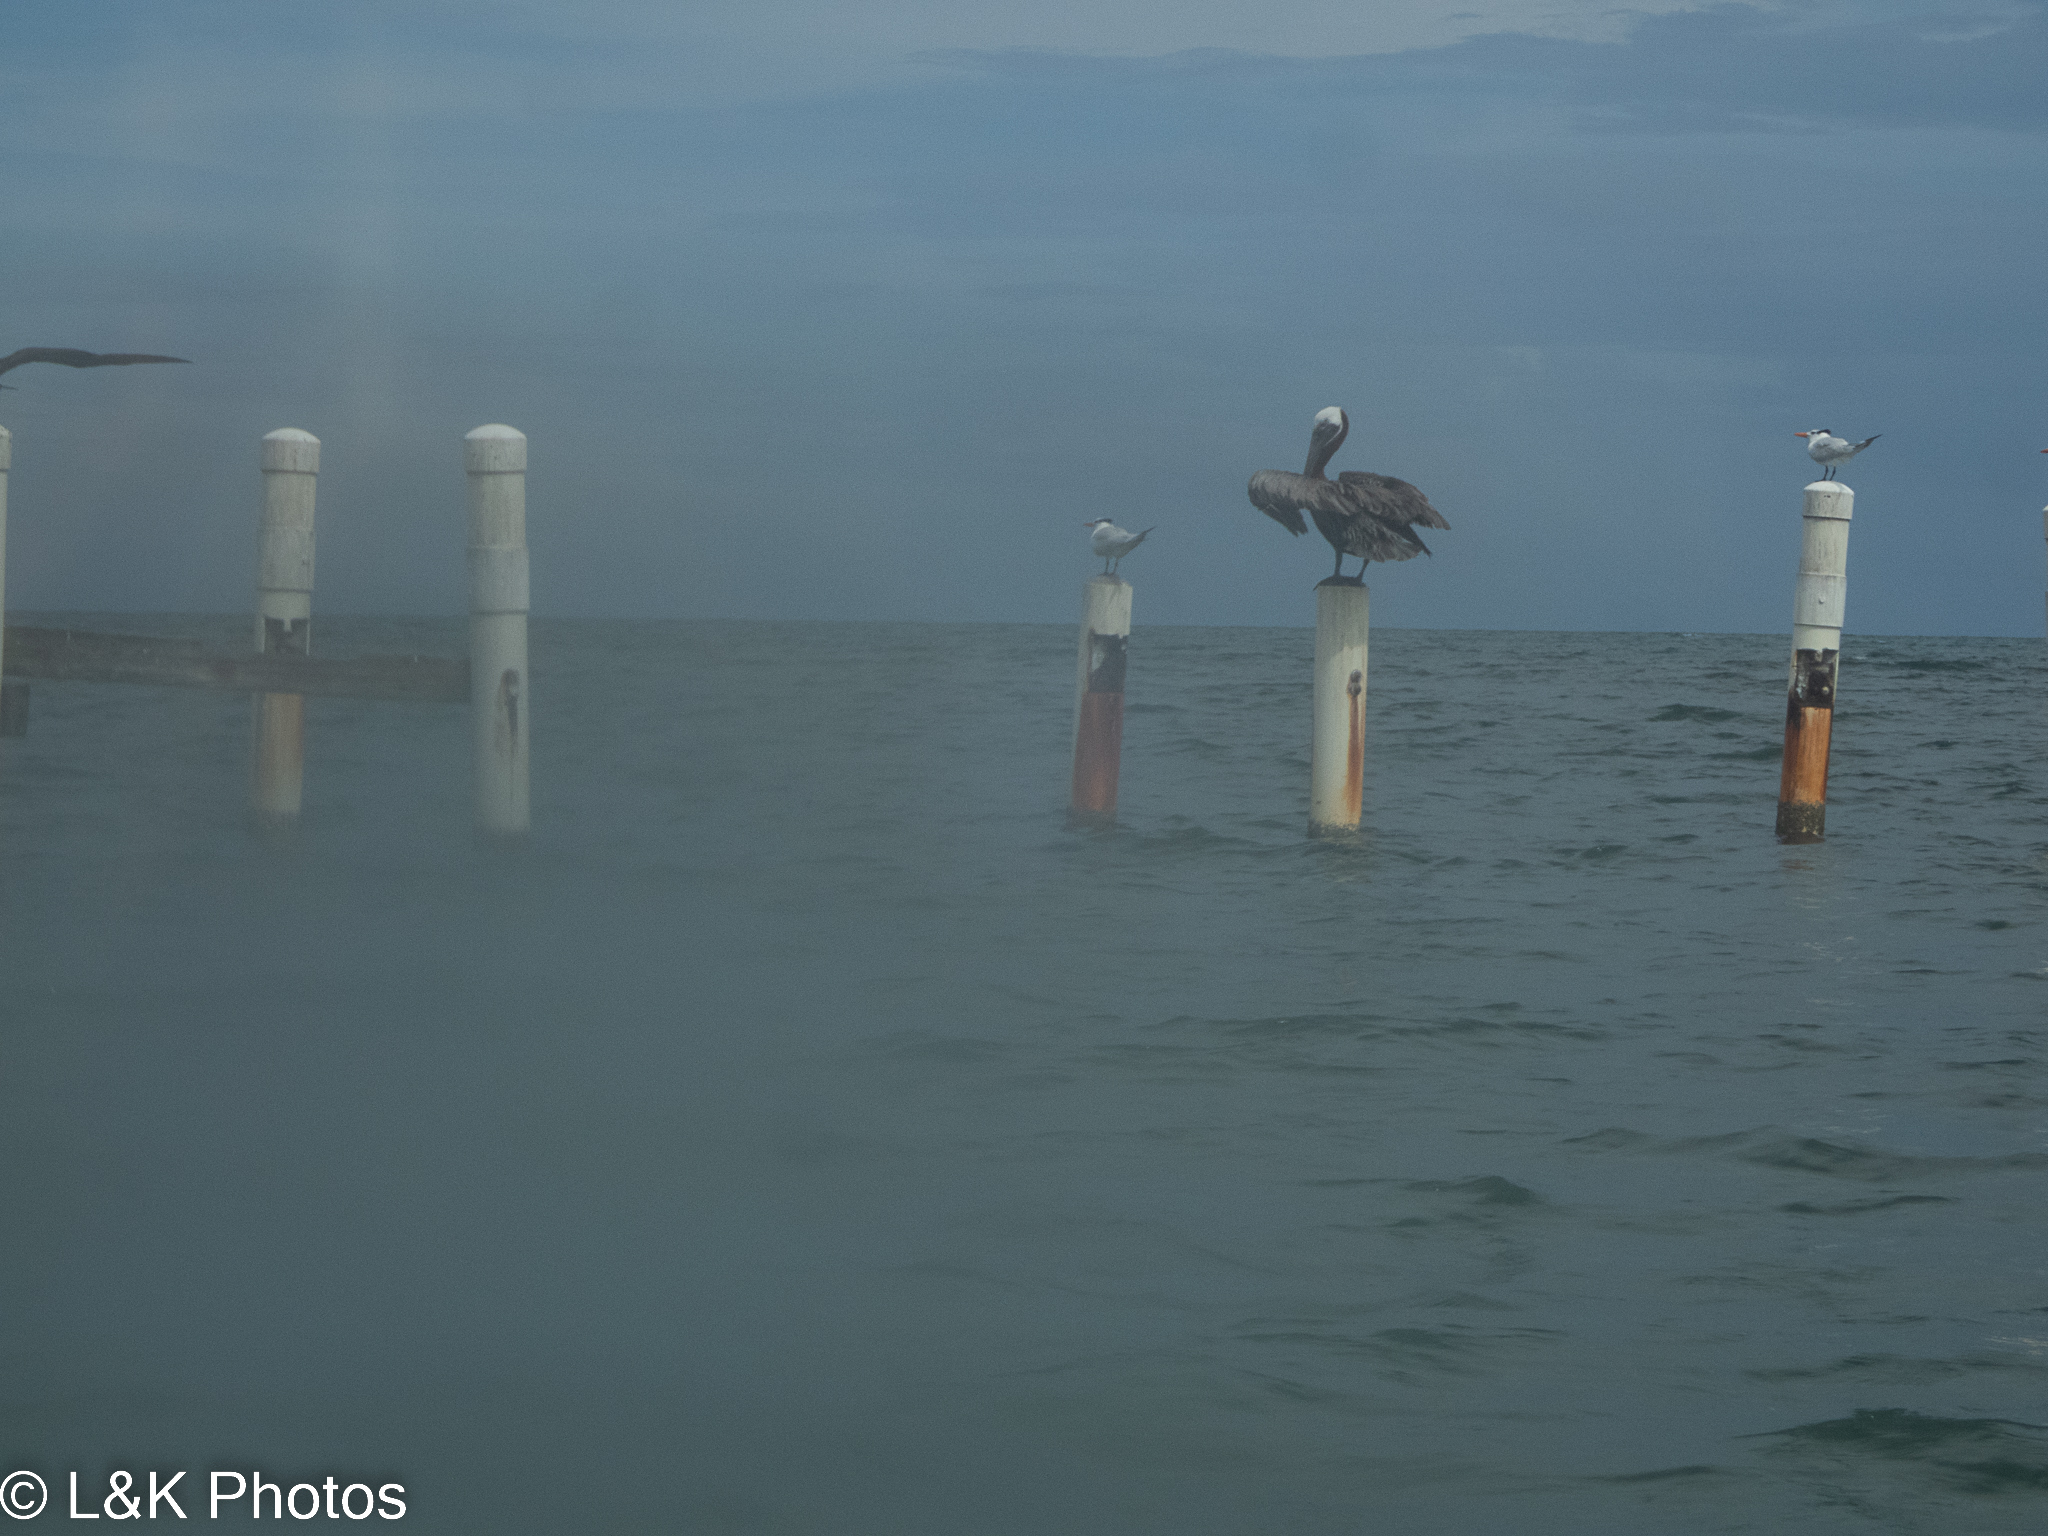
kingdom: Animalia
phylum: Chordata
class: Aves
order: Pelecaniformes
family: Pelecanidae
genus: Pelecanus
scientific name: Pelecanus occidentalis
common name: Brown pelican
